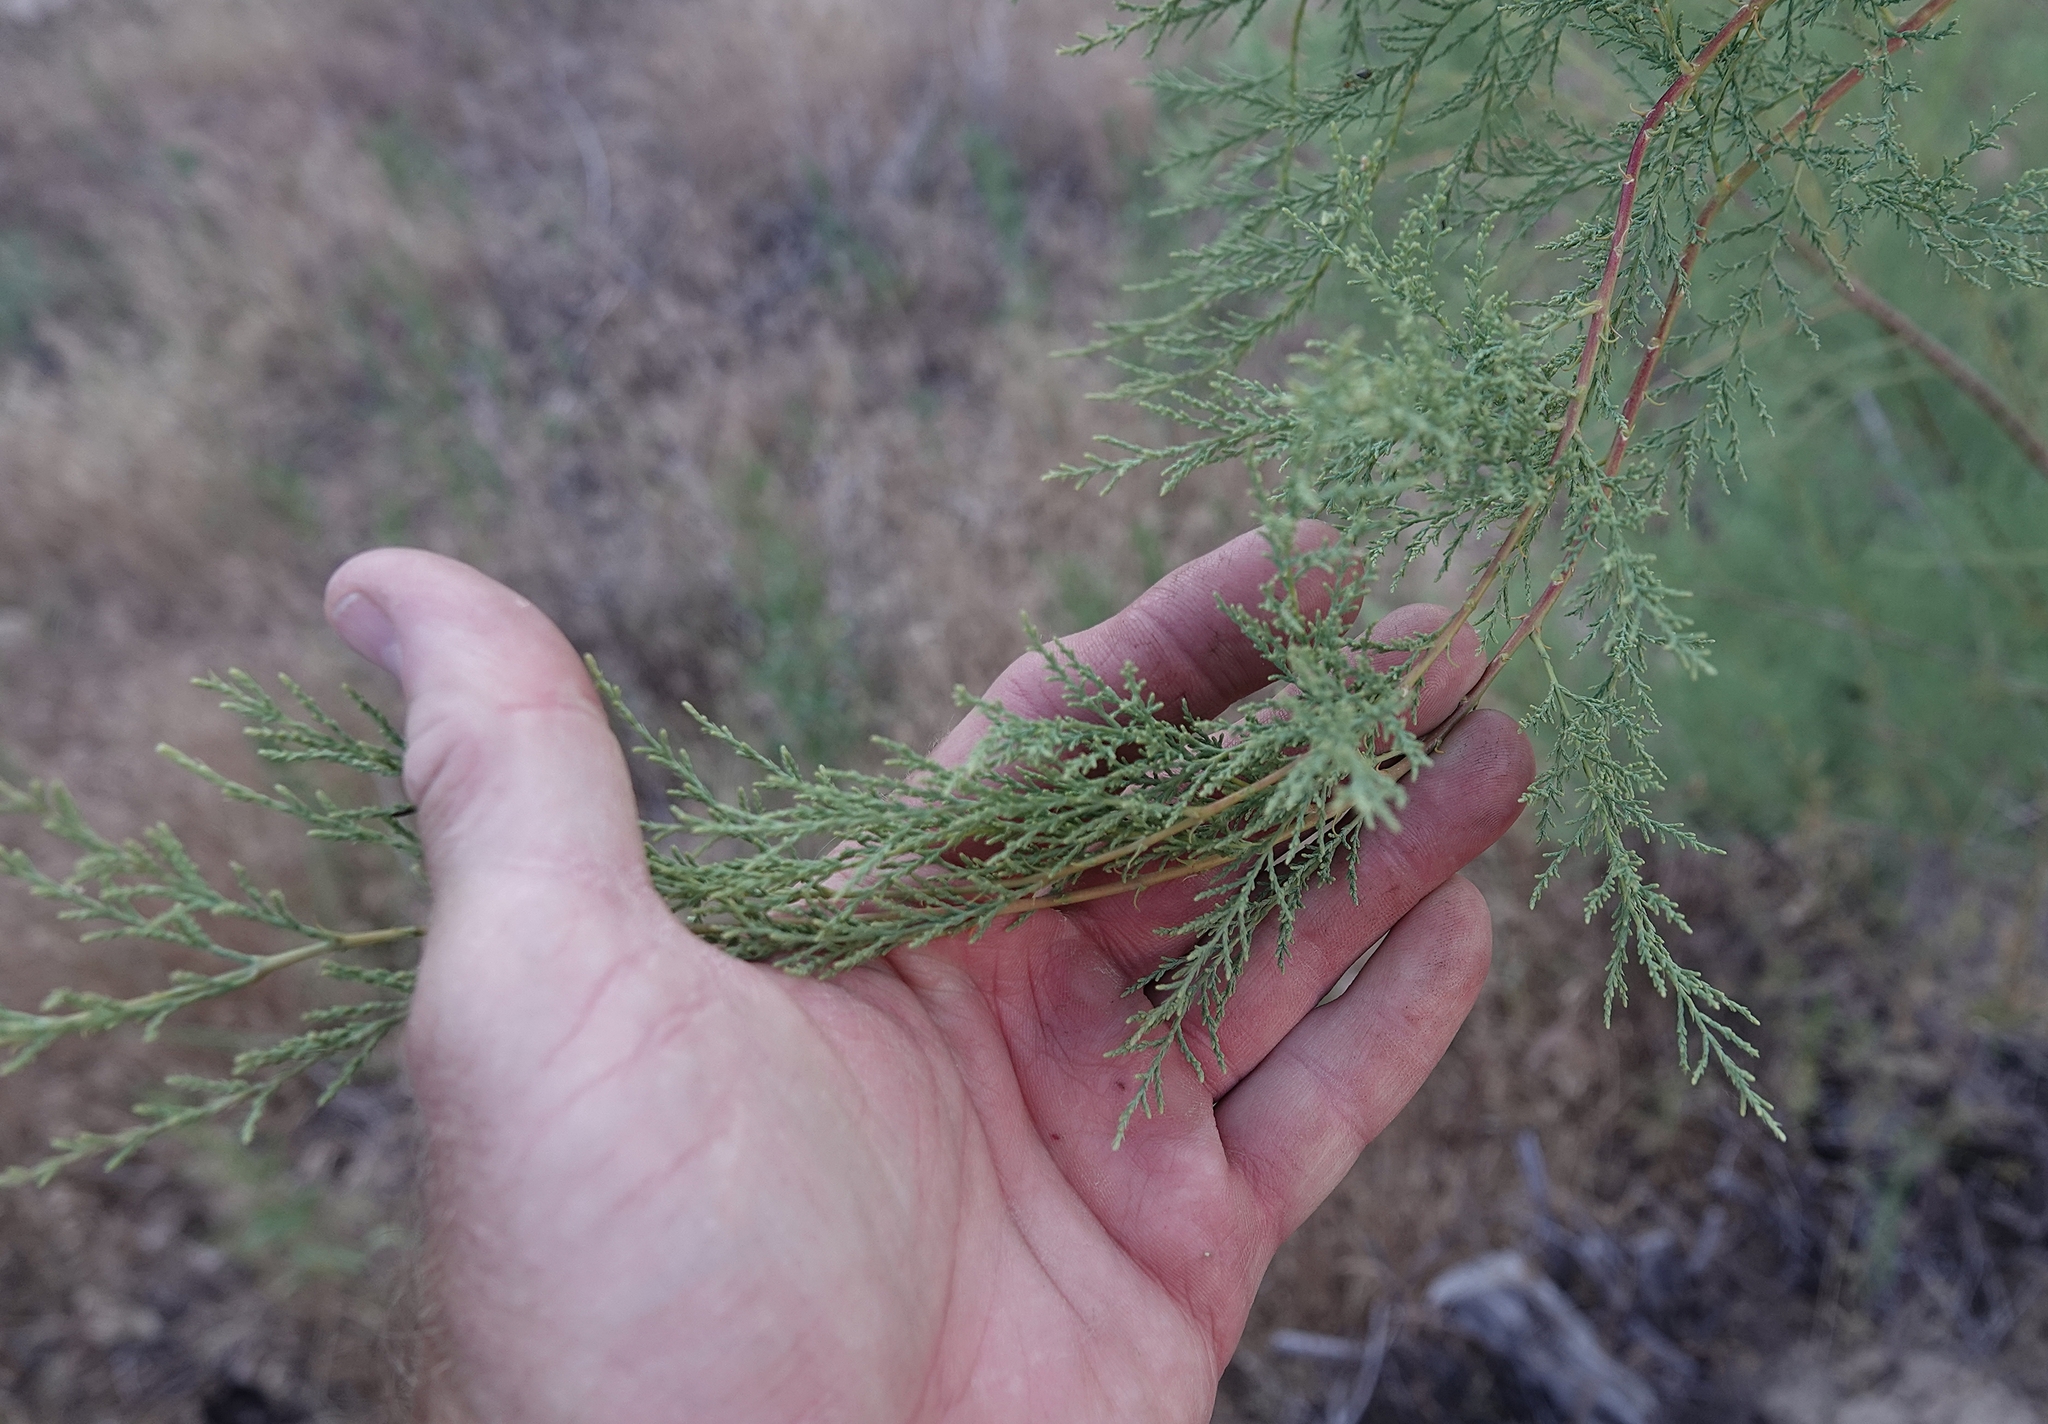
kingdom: Plantae
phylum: Tracheophyta
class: Magnoliopsida
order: Caryophyllales
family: Tamaricaceae
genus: Tamarix
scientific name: Tamarix ramosissima
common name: Pink tamarisk
